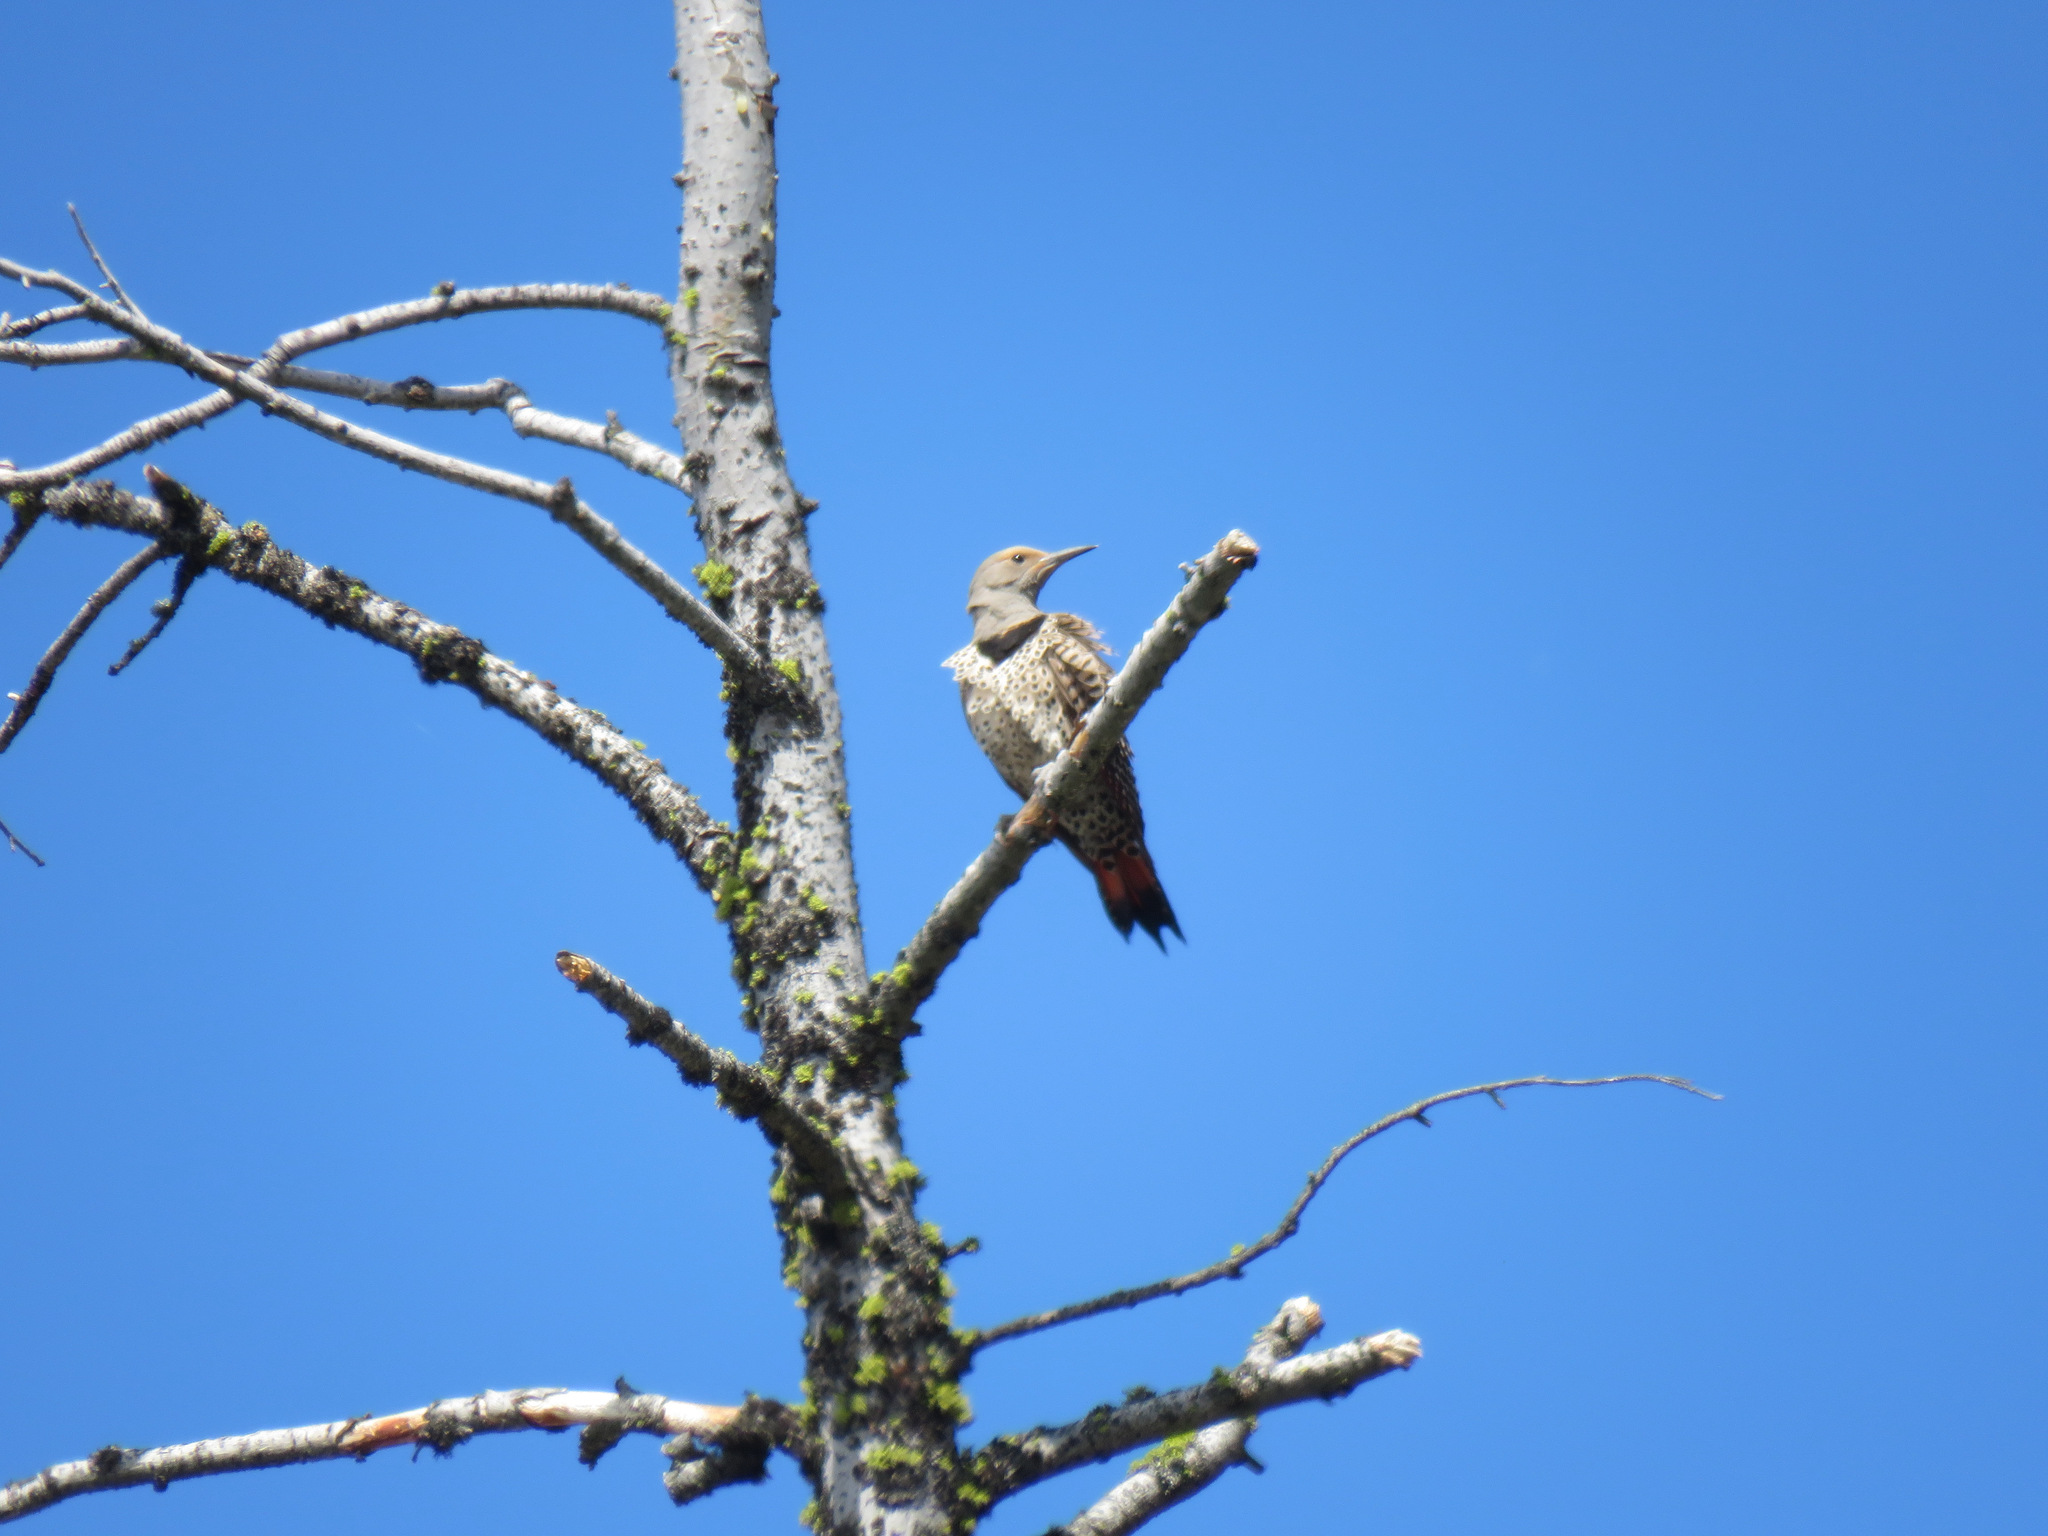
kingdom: Animalia
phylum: Chordata
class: Aves
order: Piciformes
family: Picidae
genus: Colaptes
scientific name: Colaptes auratus
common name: Northern flicker
